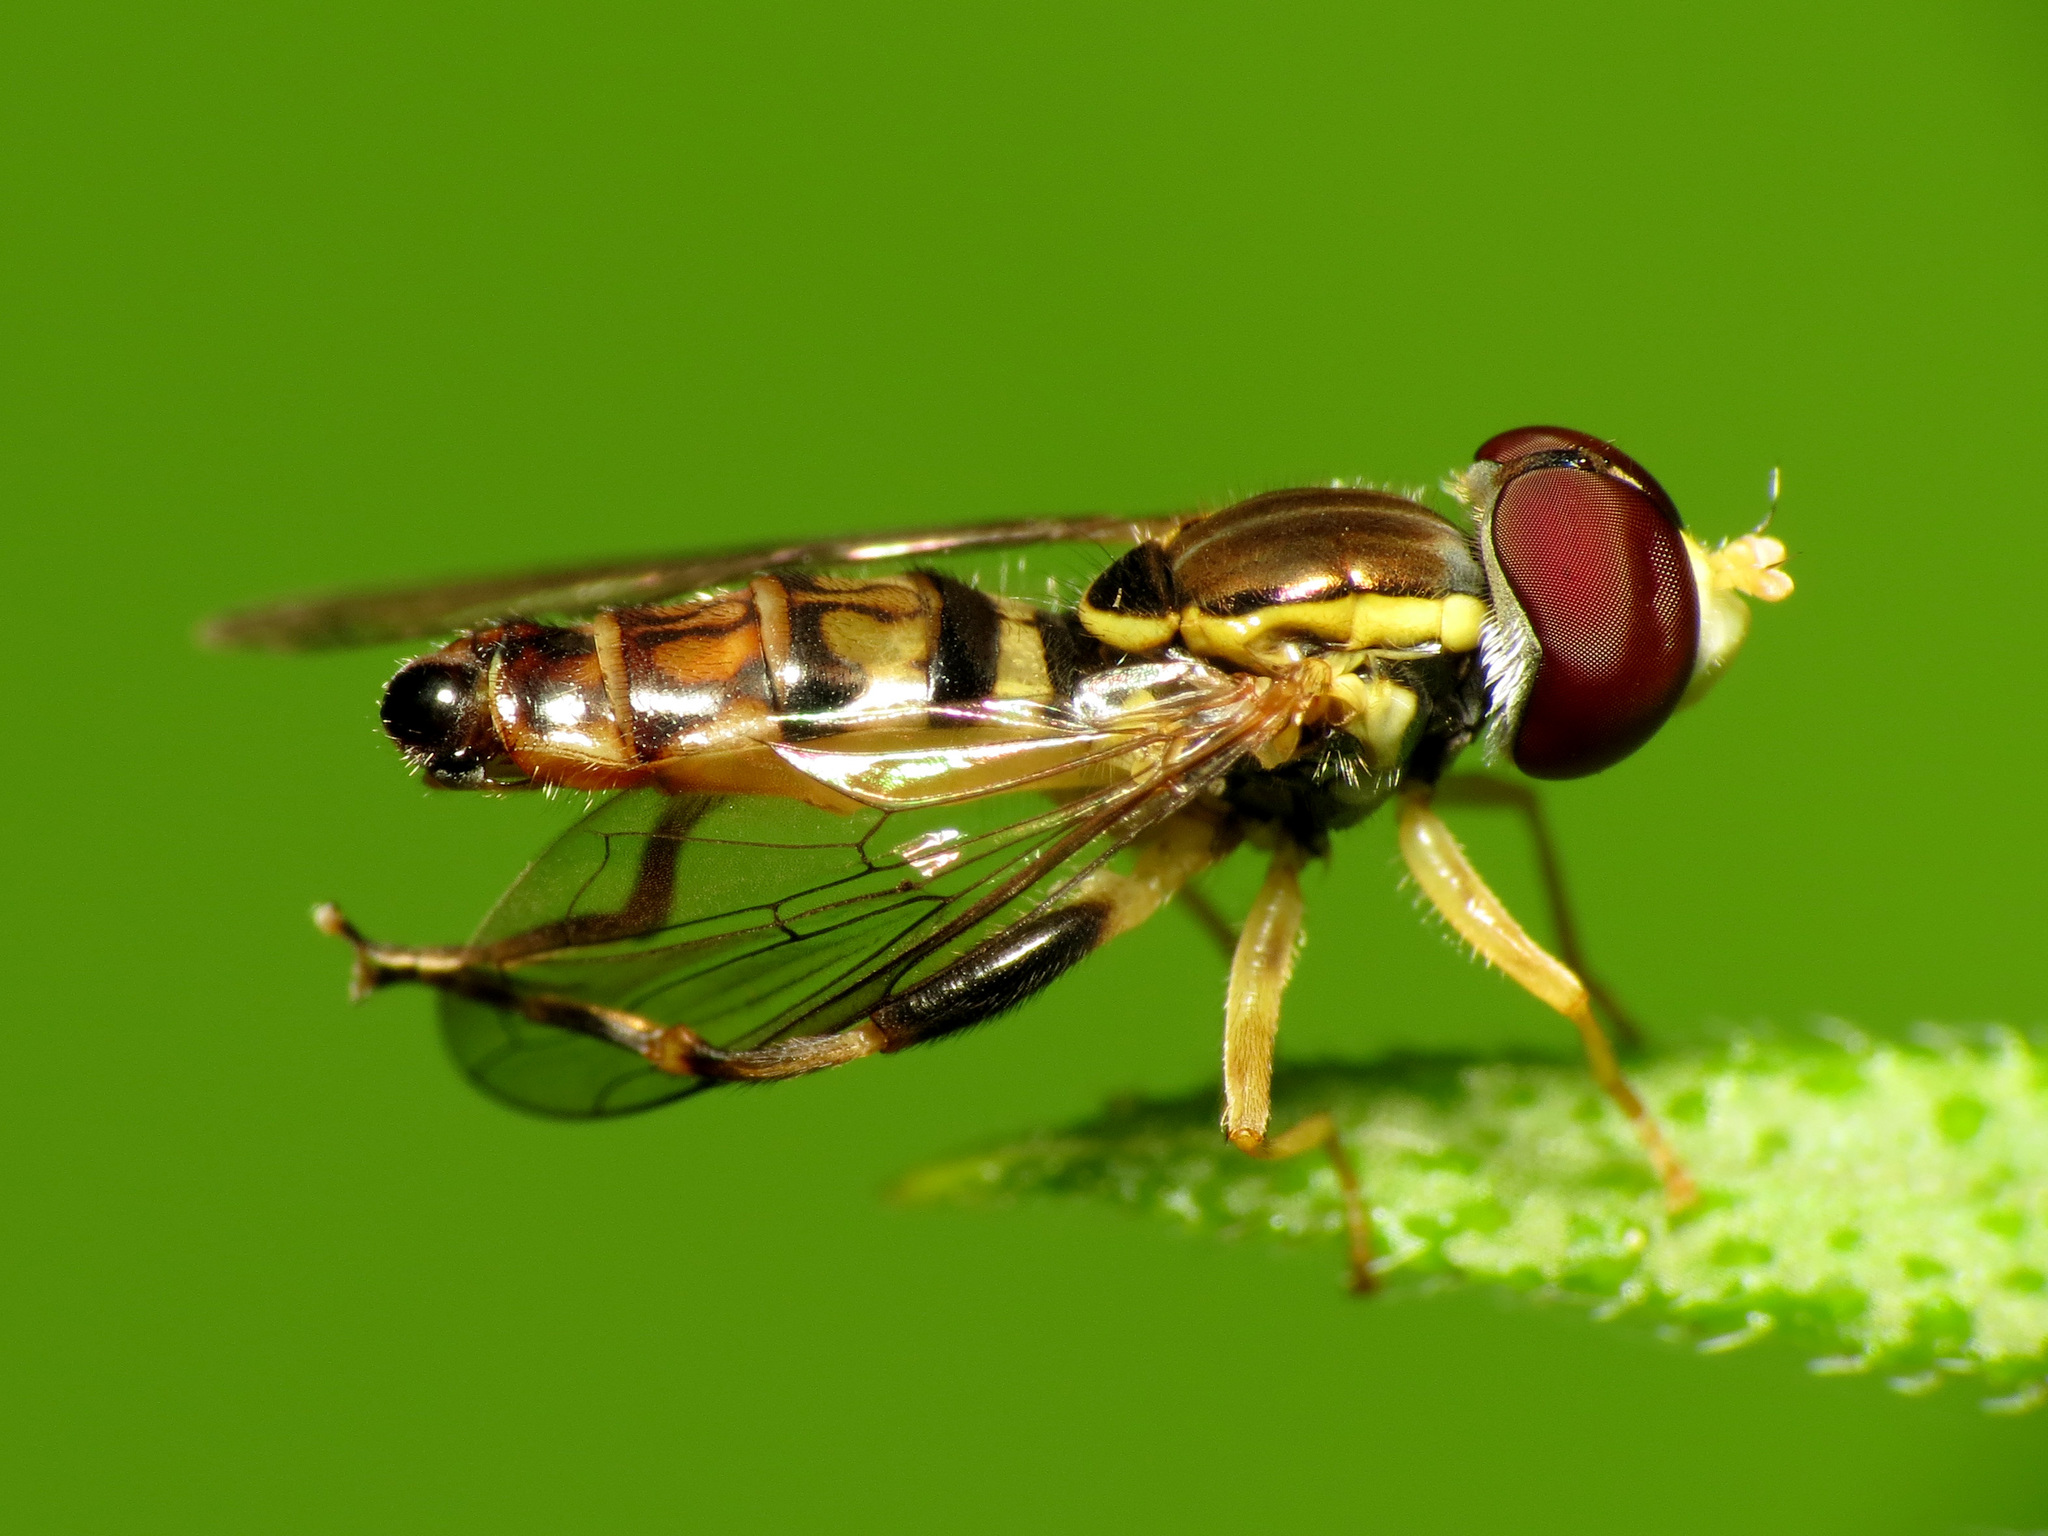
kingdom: Animalia
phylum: Arthropoda
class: Insecta
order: Diptera
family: Syrphidae
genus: Toxomerus
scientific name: Toxomerus geminatus
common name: Eastern calligrapher
